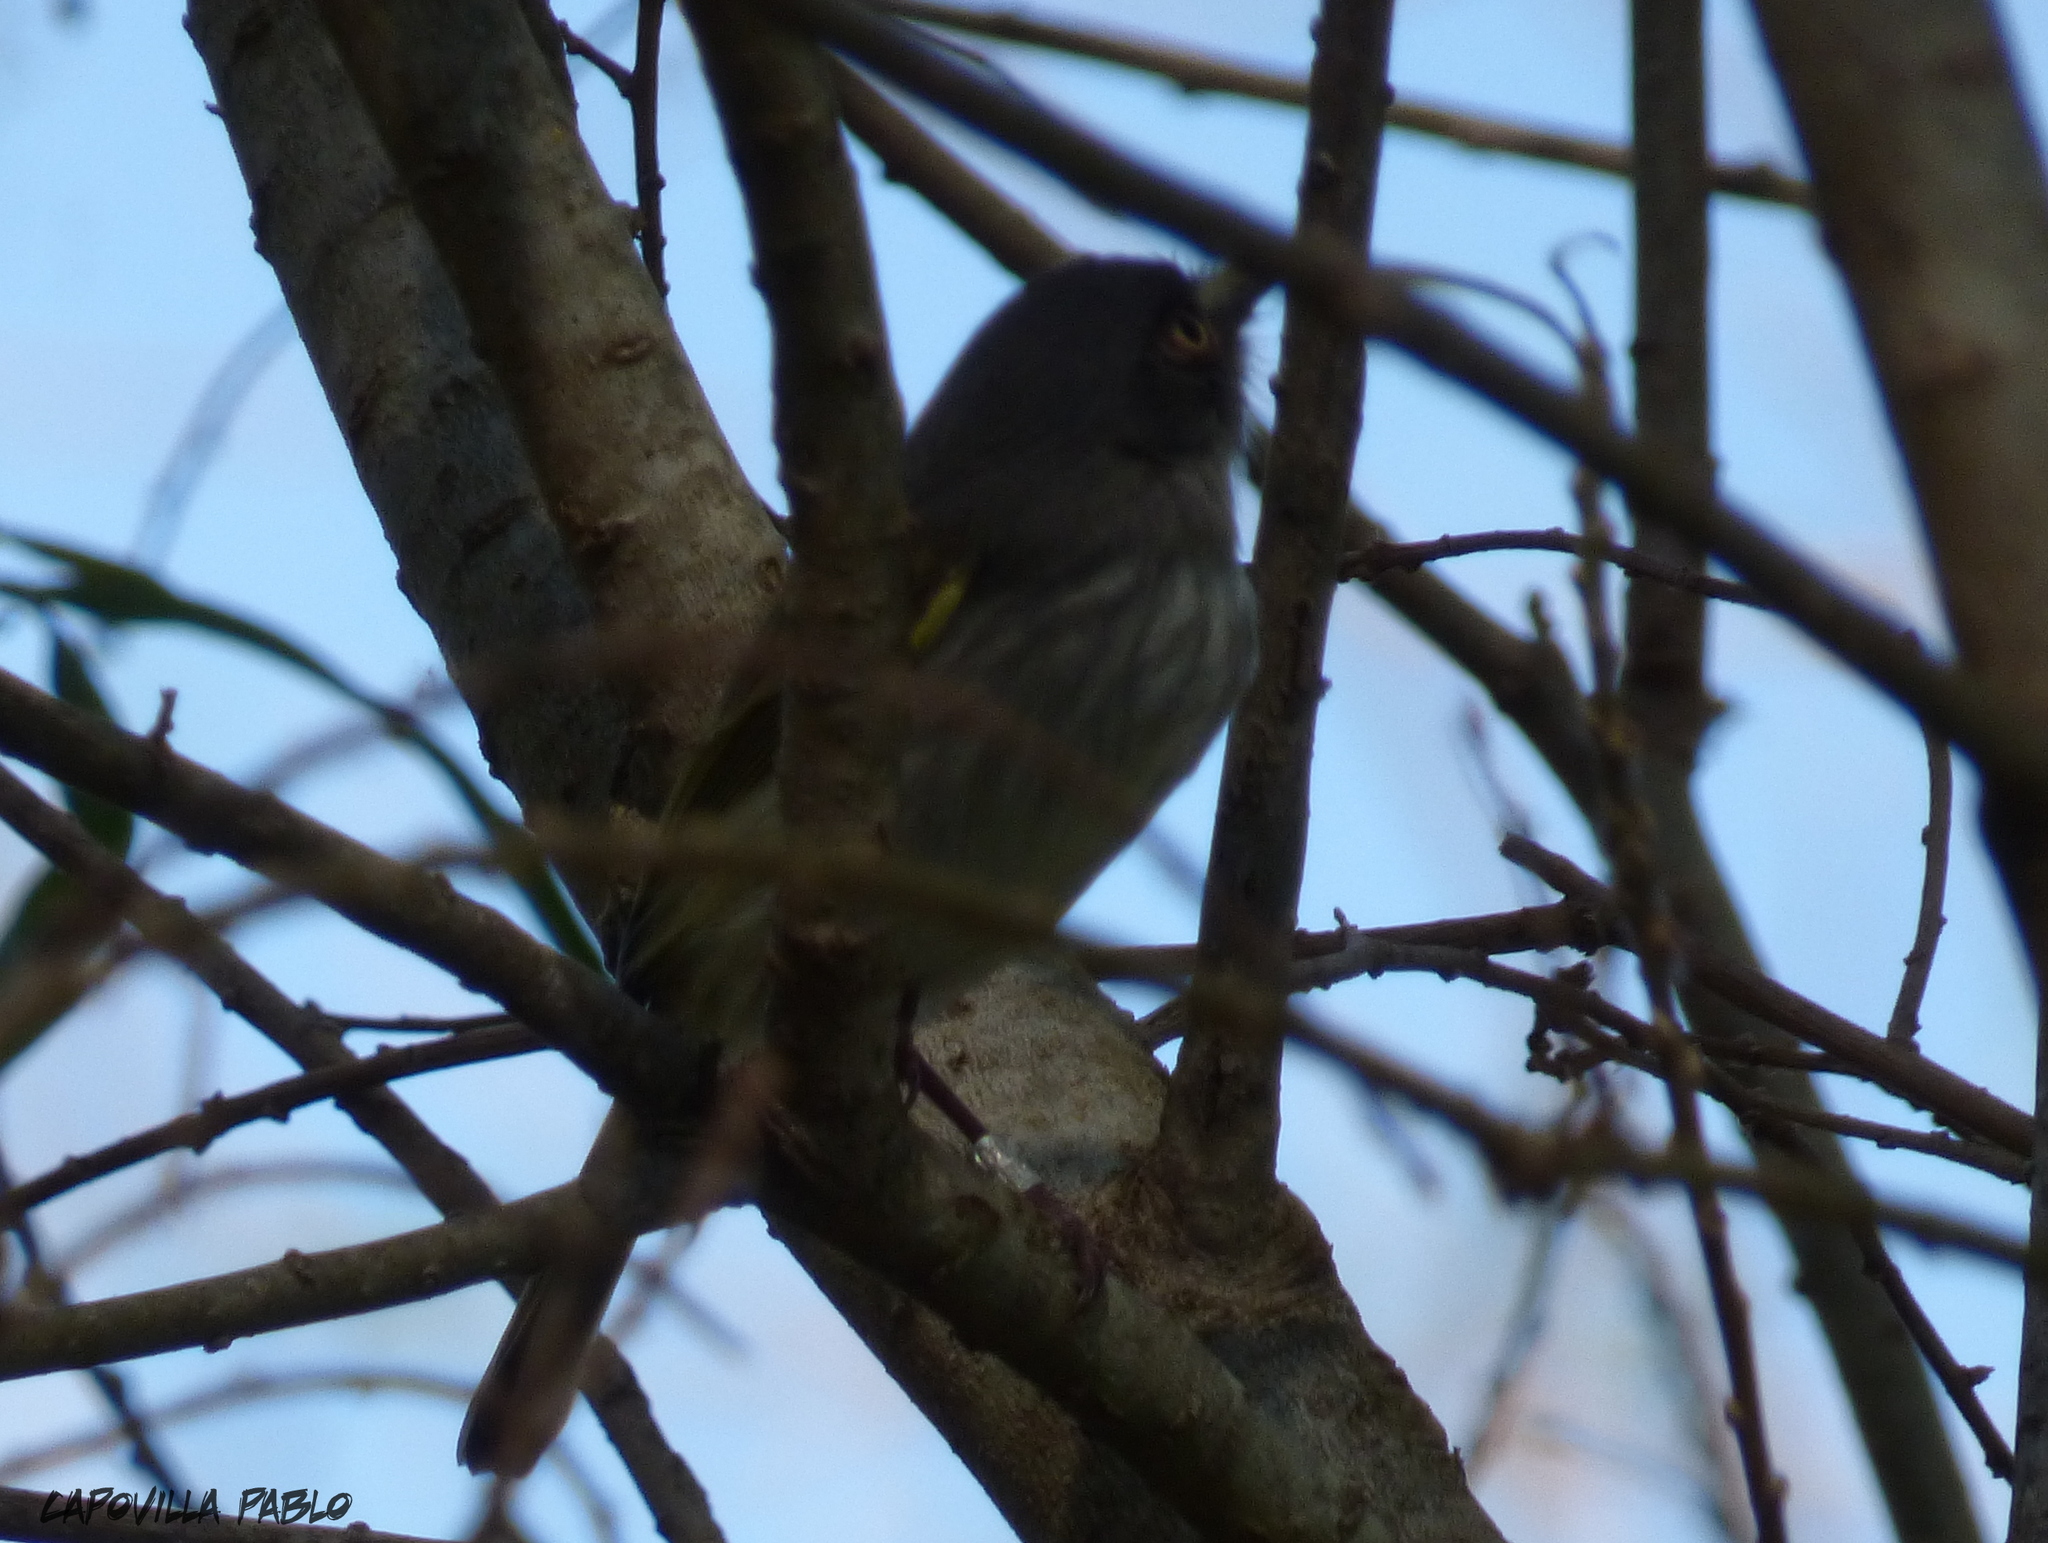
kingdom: Animalia
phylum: Chordata
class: Aves
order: Passeriformes
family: Tyrannidae
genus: Hemitriccus
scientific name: Hemitriccus margaritaceiventer
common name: Pearly-vented tody-tyrant
